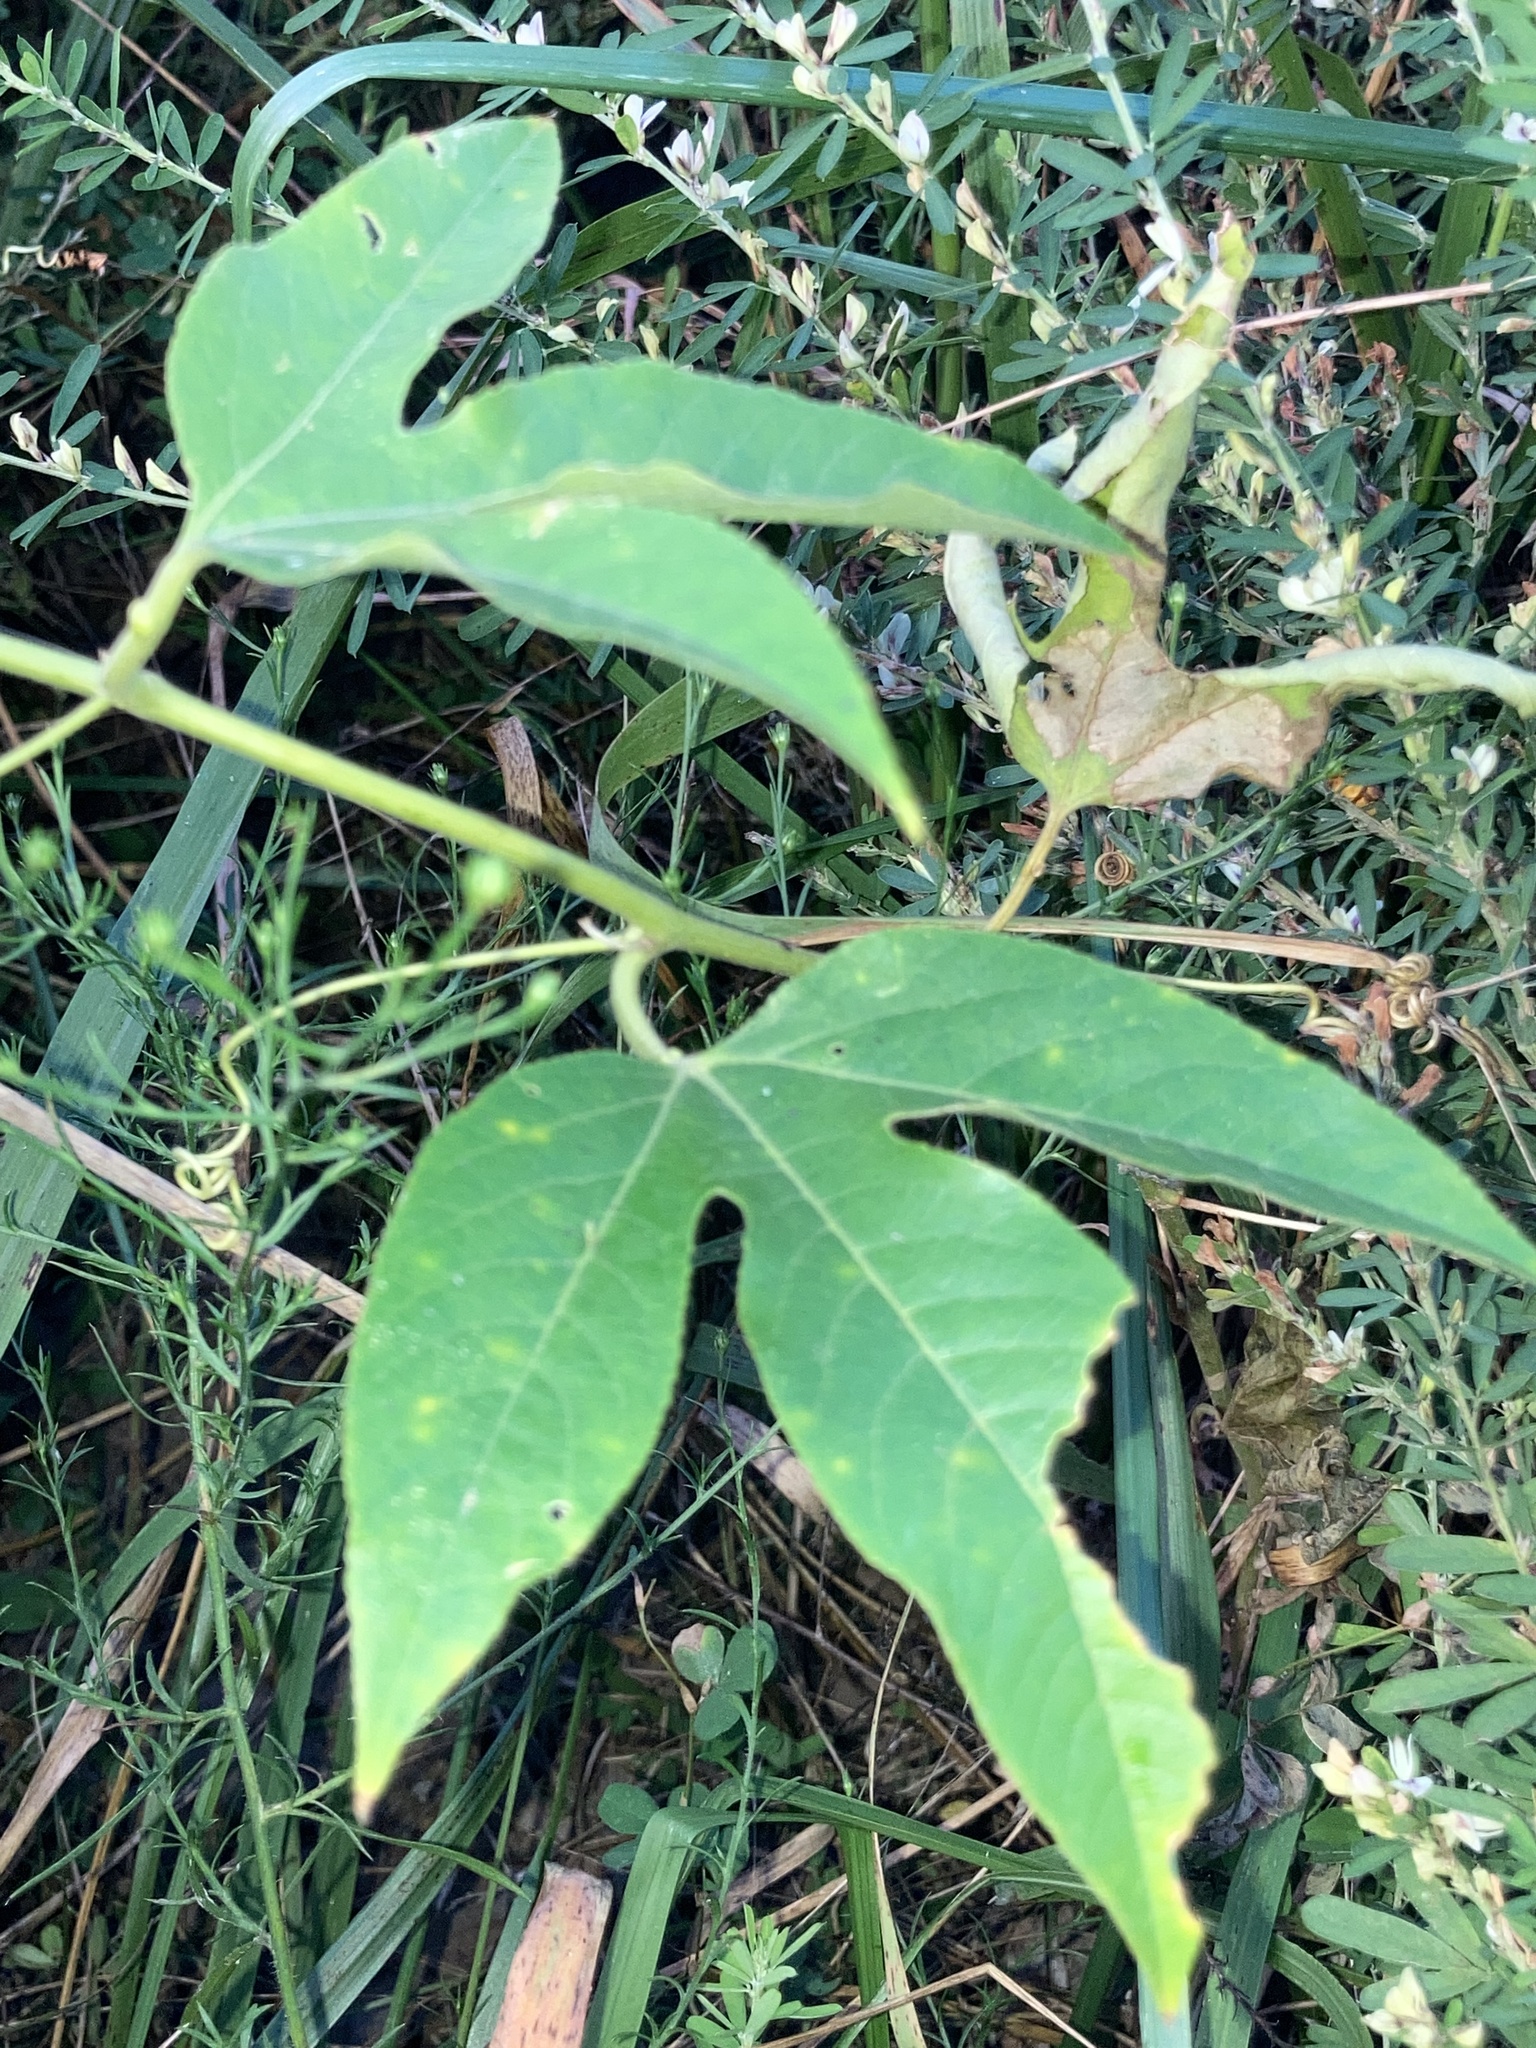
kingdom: Plantae
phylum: Tracheophyta
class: Magnoliopsida
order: Malpighiales
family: Passifloraceae
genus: Passiflora
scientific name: Passiflora incarnata
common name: Apricot-vine
